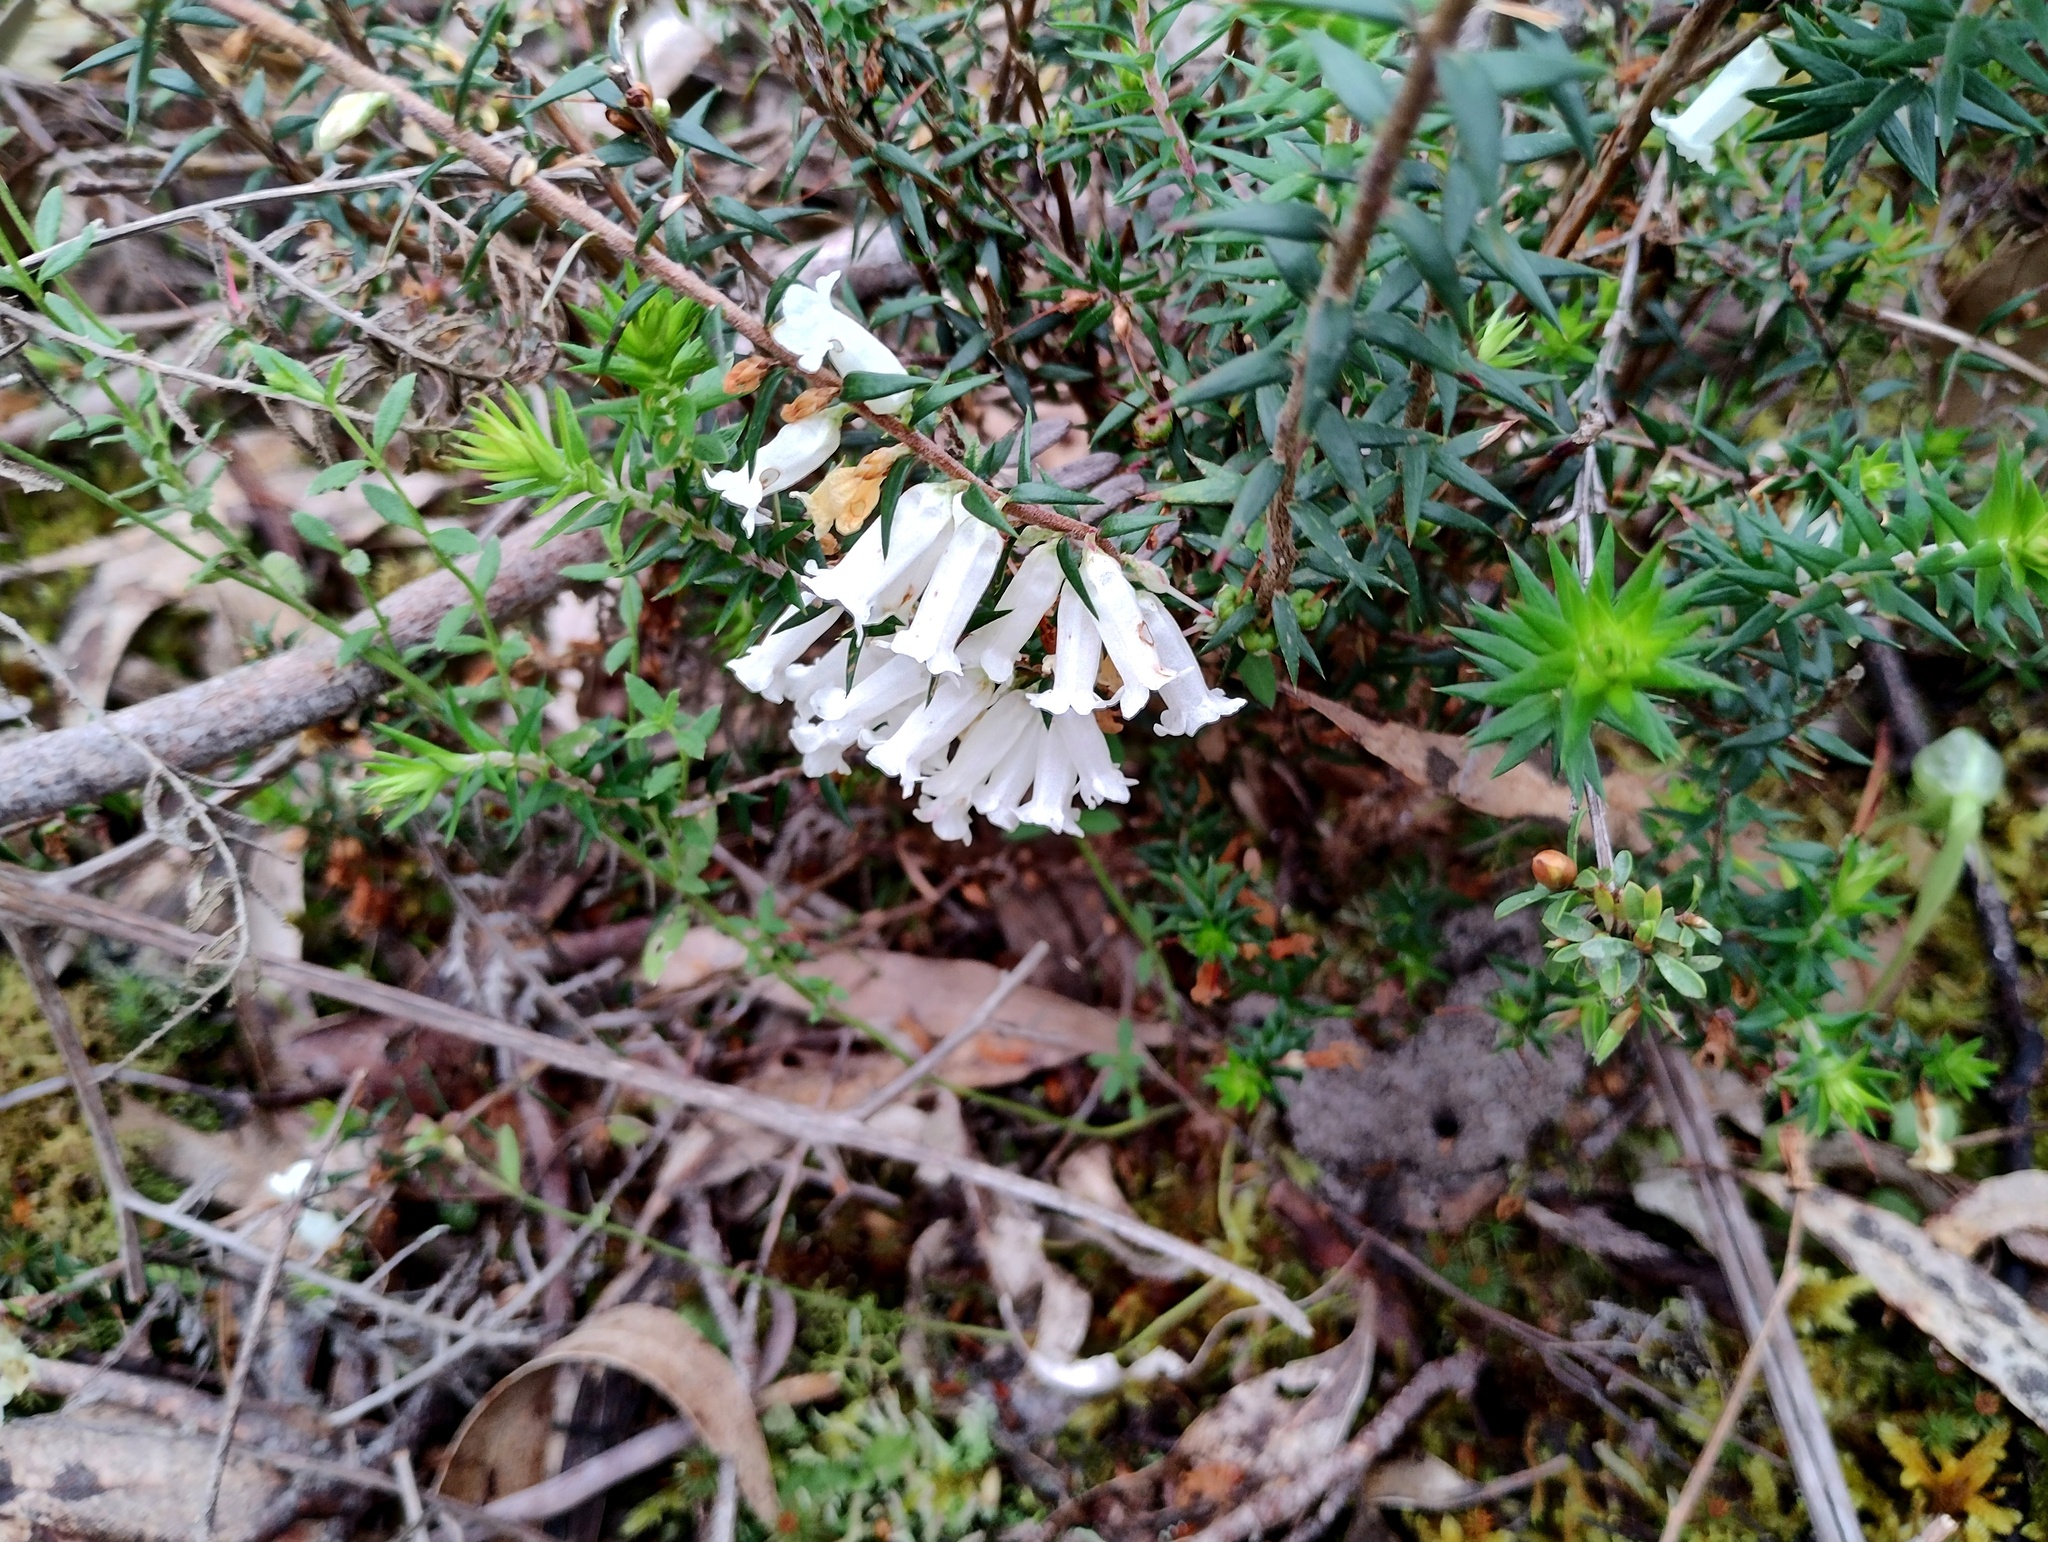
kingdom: Plantae
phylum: Tracheophyta
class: Magnoliopsida
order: Ericales
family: Ericaceae
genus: Epacris
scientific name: Epacris impressa
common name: Common-heath
